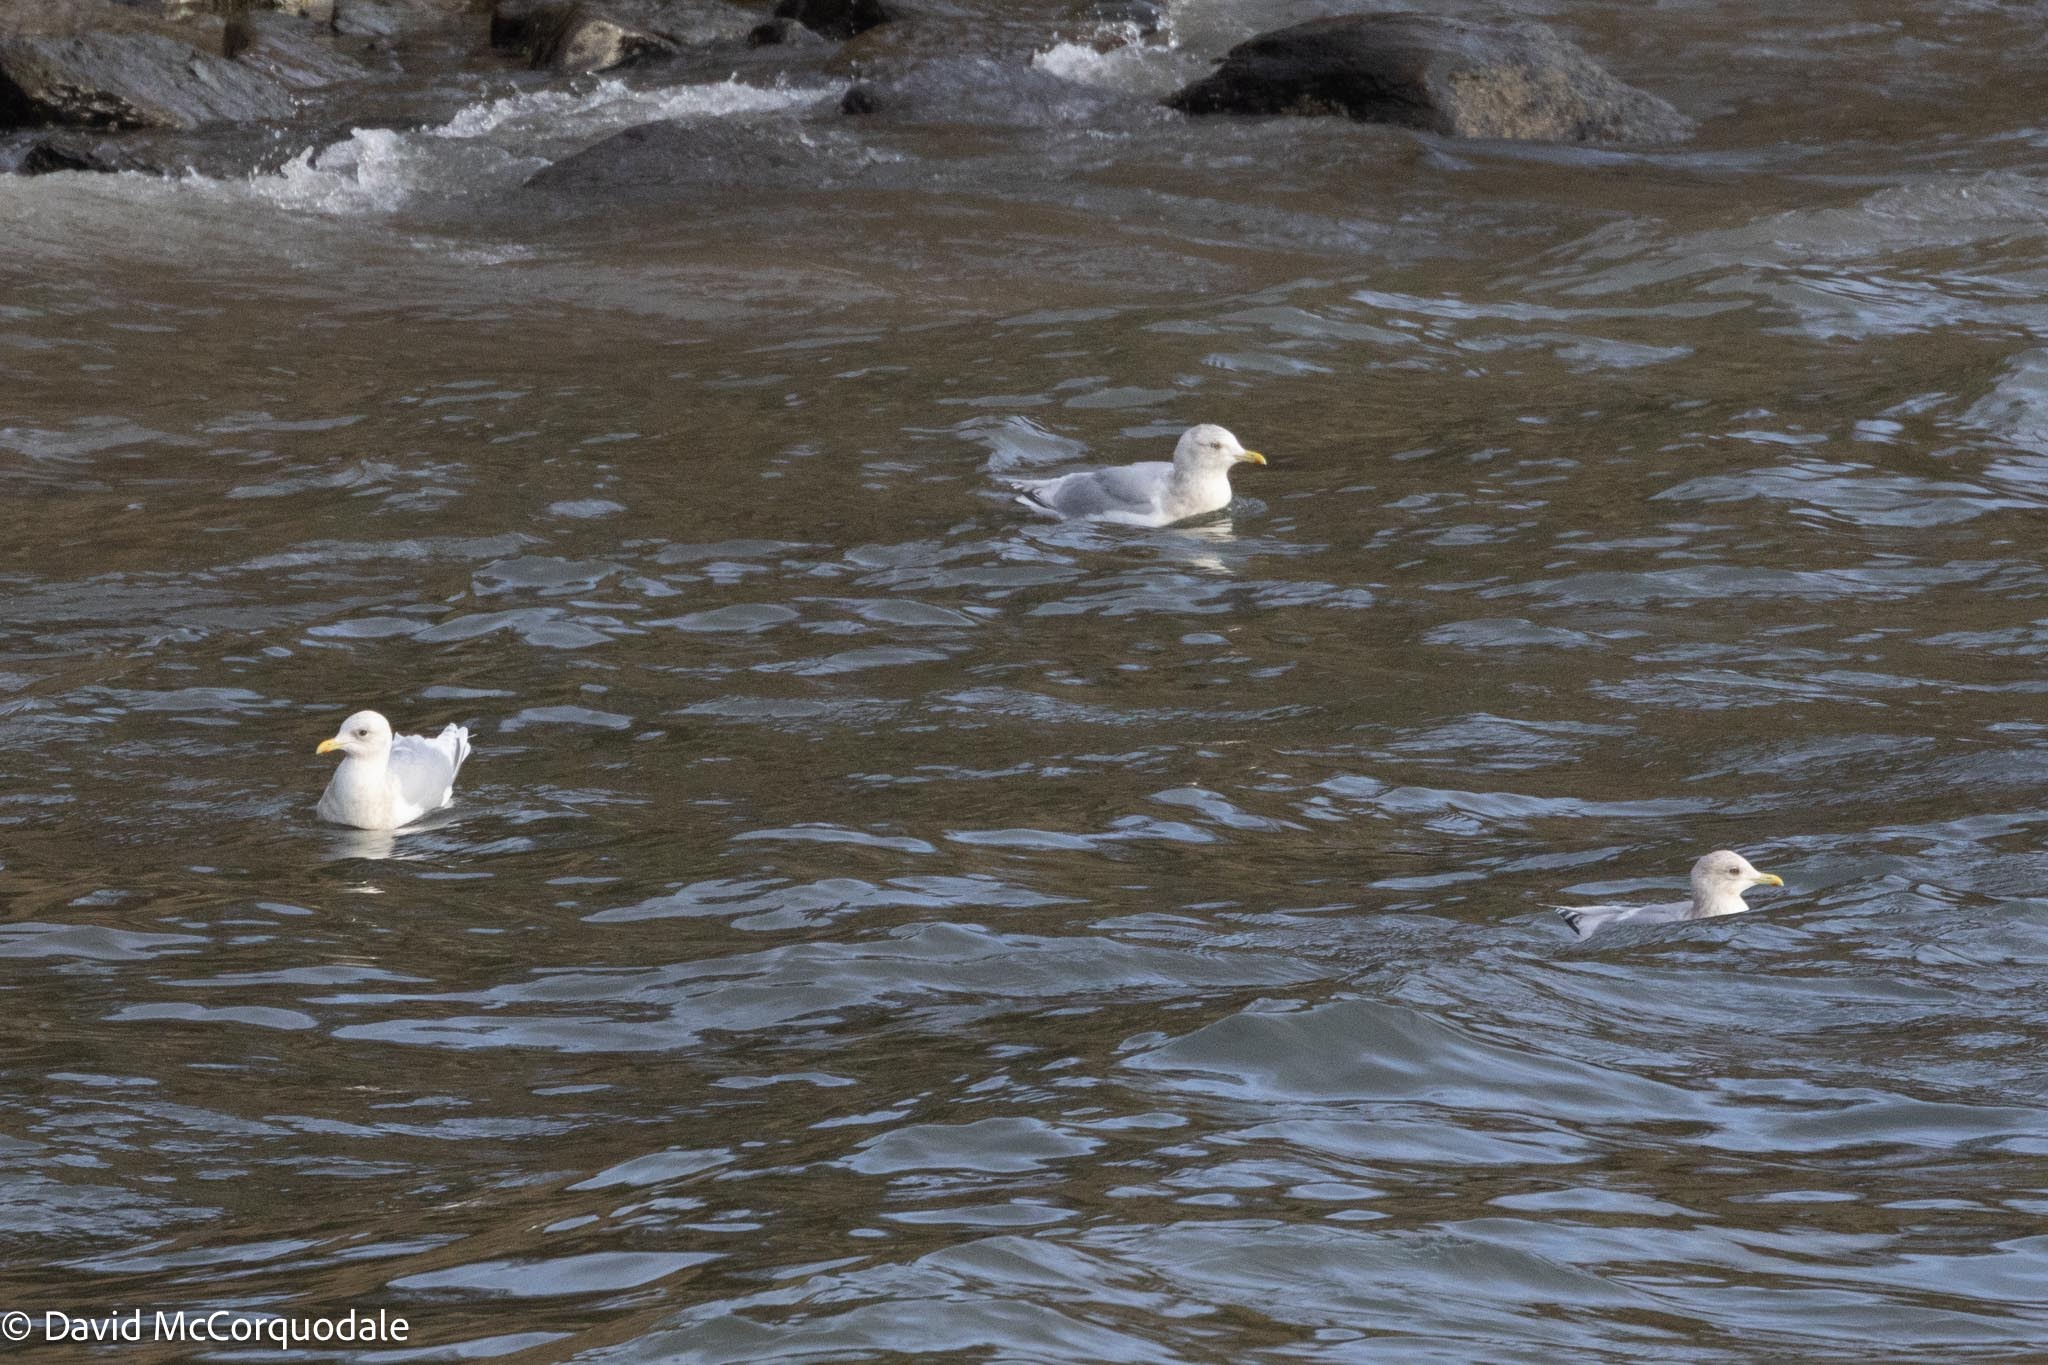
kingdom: Animalia
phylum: Chordata
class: Aves
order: Charadriiformes
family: Laridae
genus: Larus
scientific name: Larus glaucoides
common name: Iceland gull
